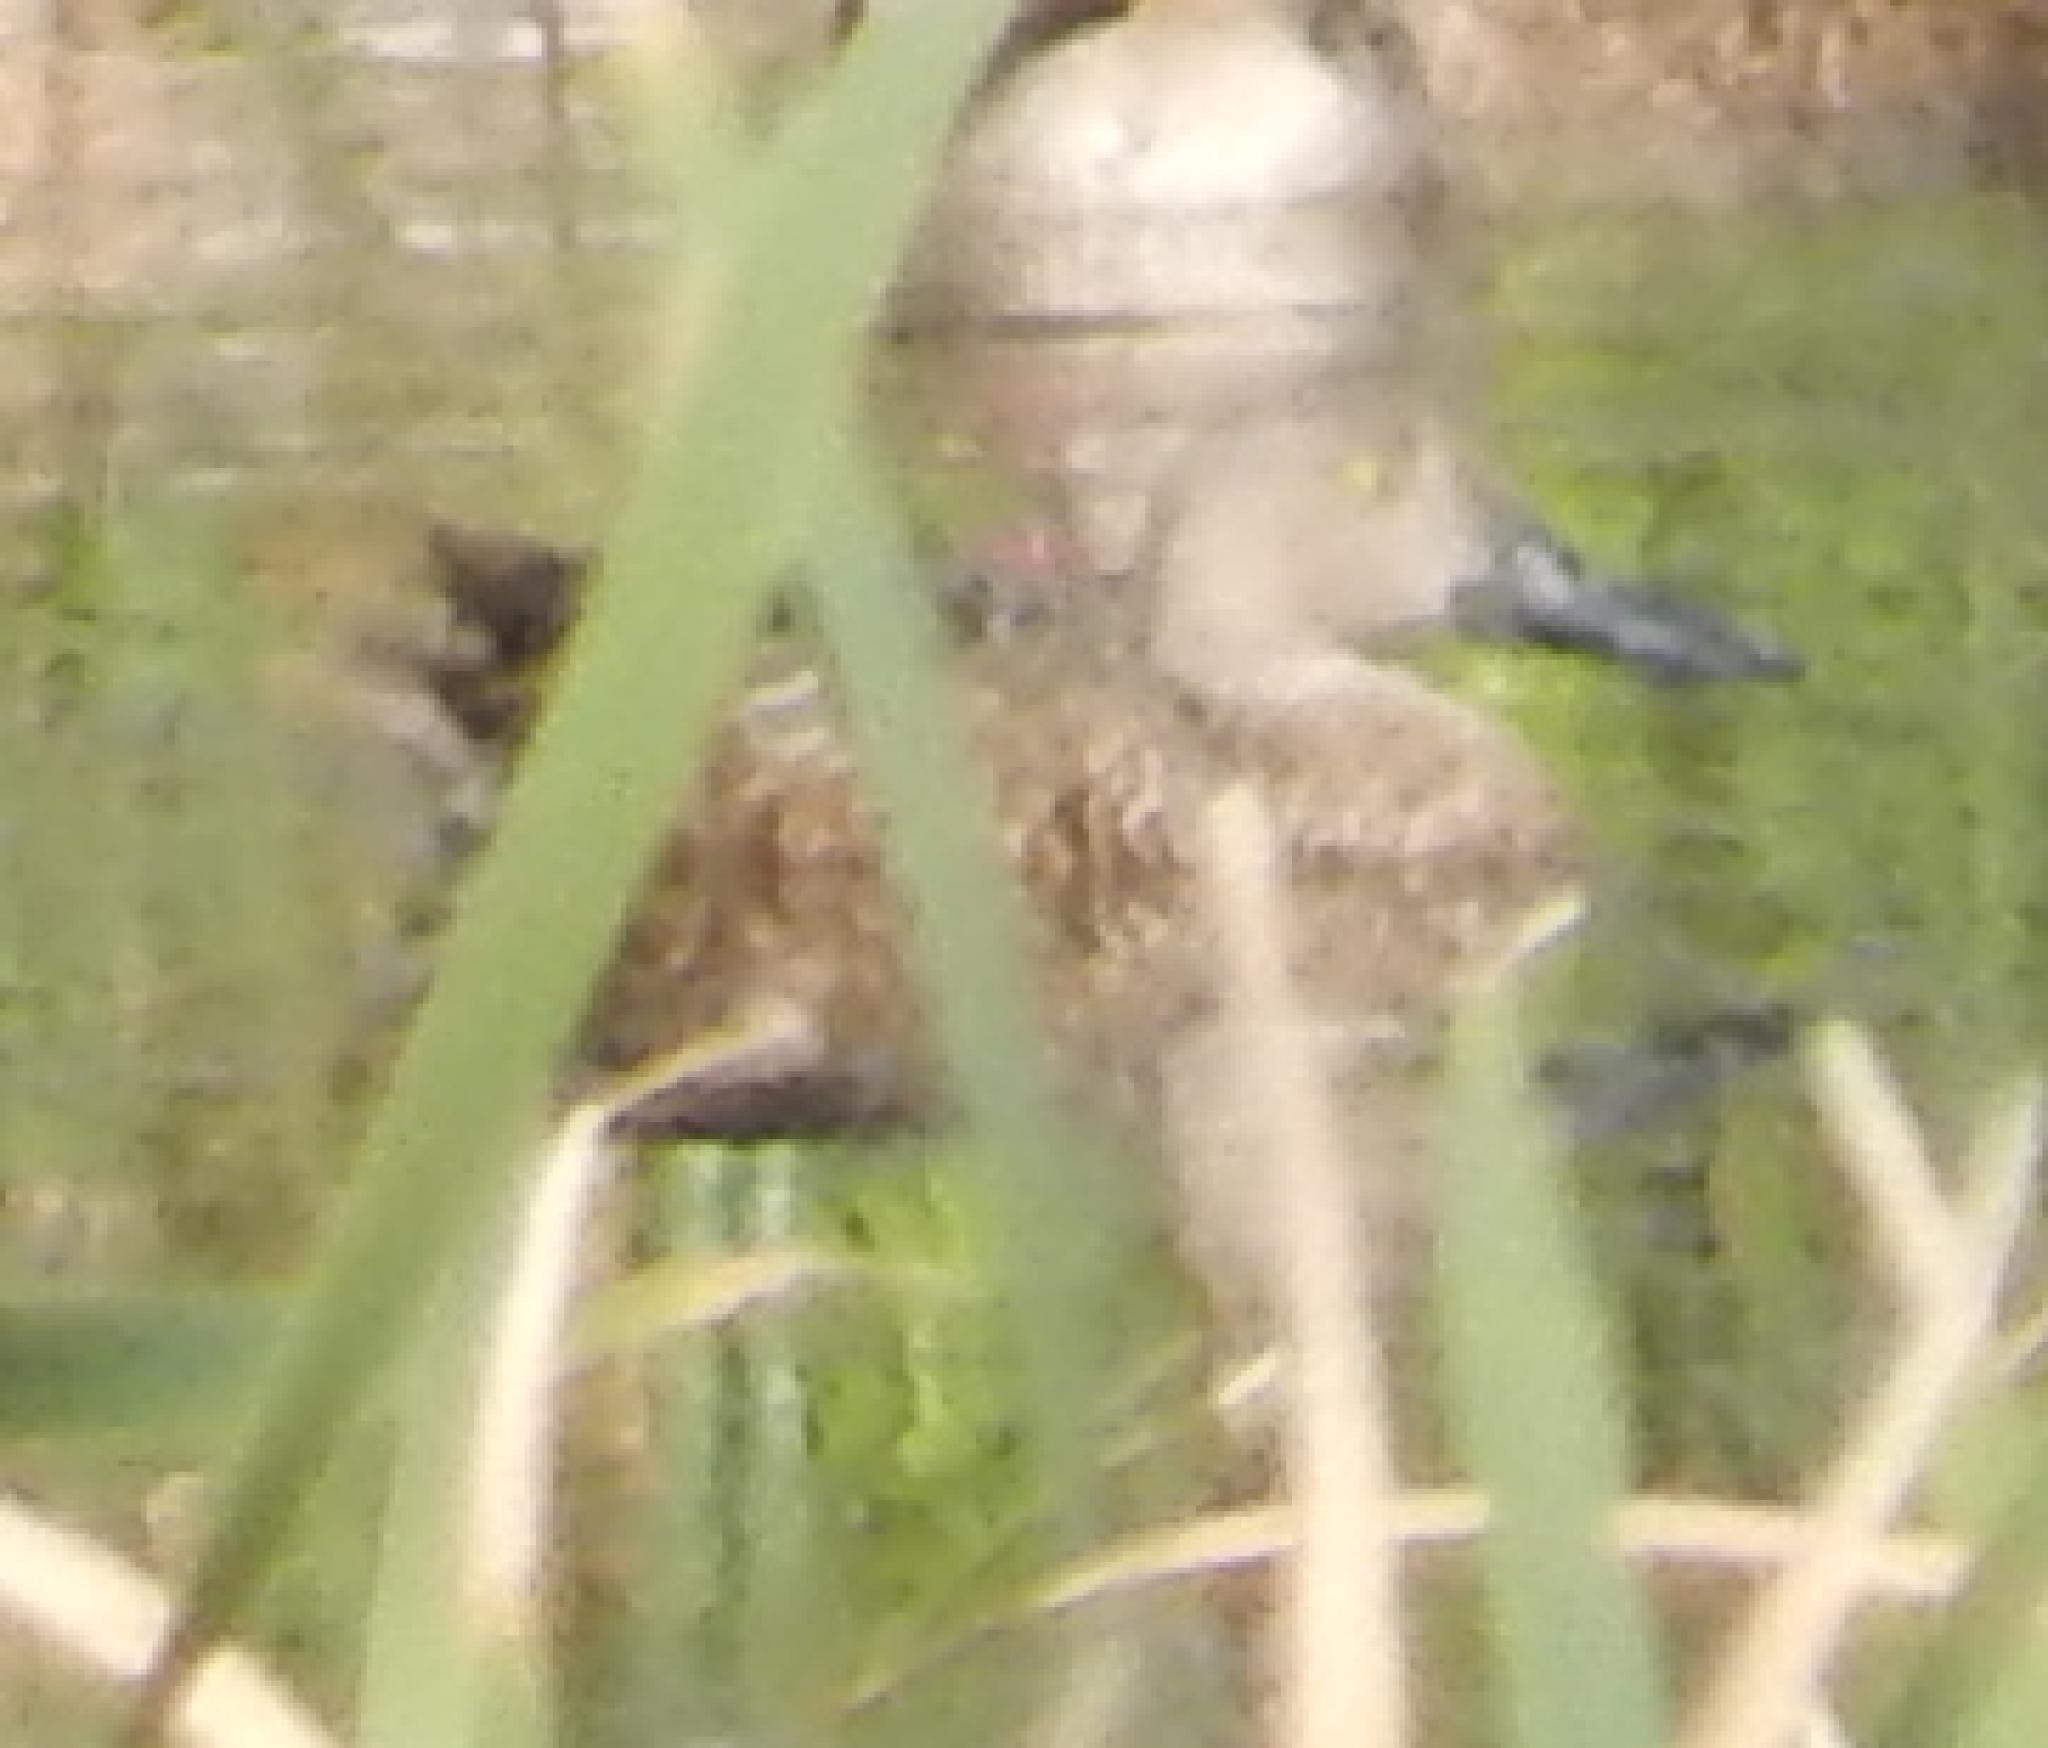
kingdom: Animalia
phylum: Chordata
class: Aves
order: Anseriformes
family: Anatidae
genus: Spatula
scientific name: Spatula smithii
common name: Cape shoveler
